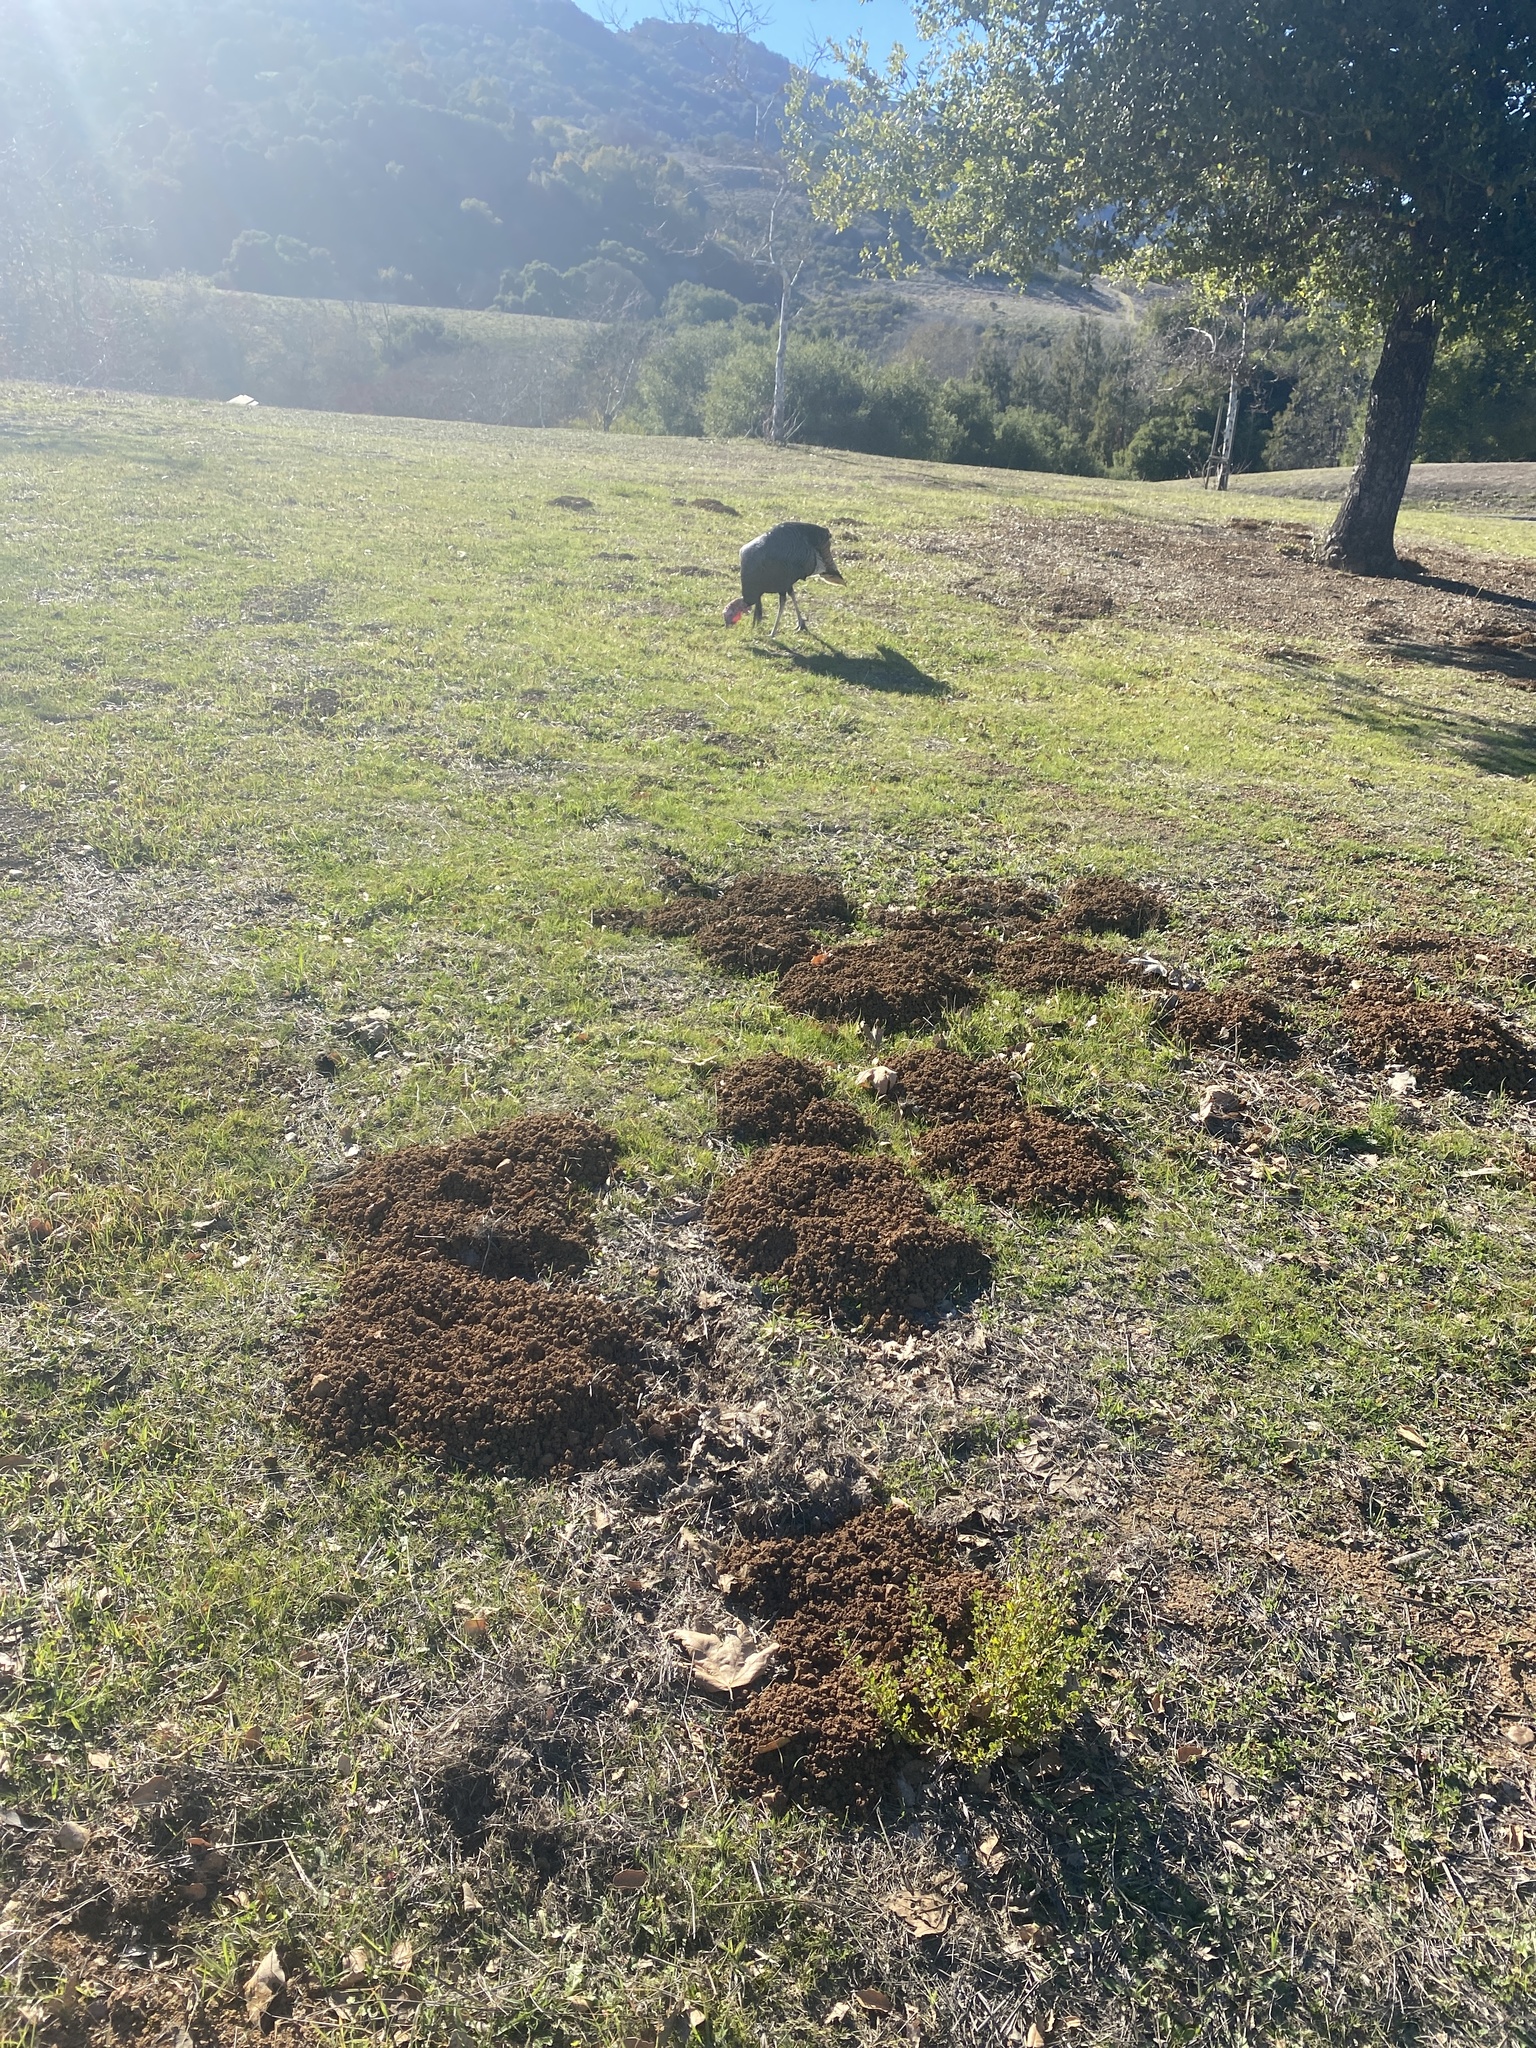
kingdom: Animalia
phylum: Chordata
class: Aves
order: Galliformes
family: Phasianidae
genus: Meleagris
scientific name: Meleagris gallopavo
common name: Wild turkey
